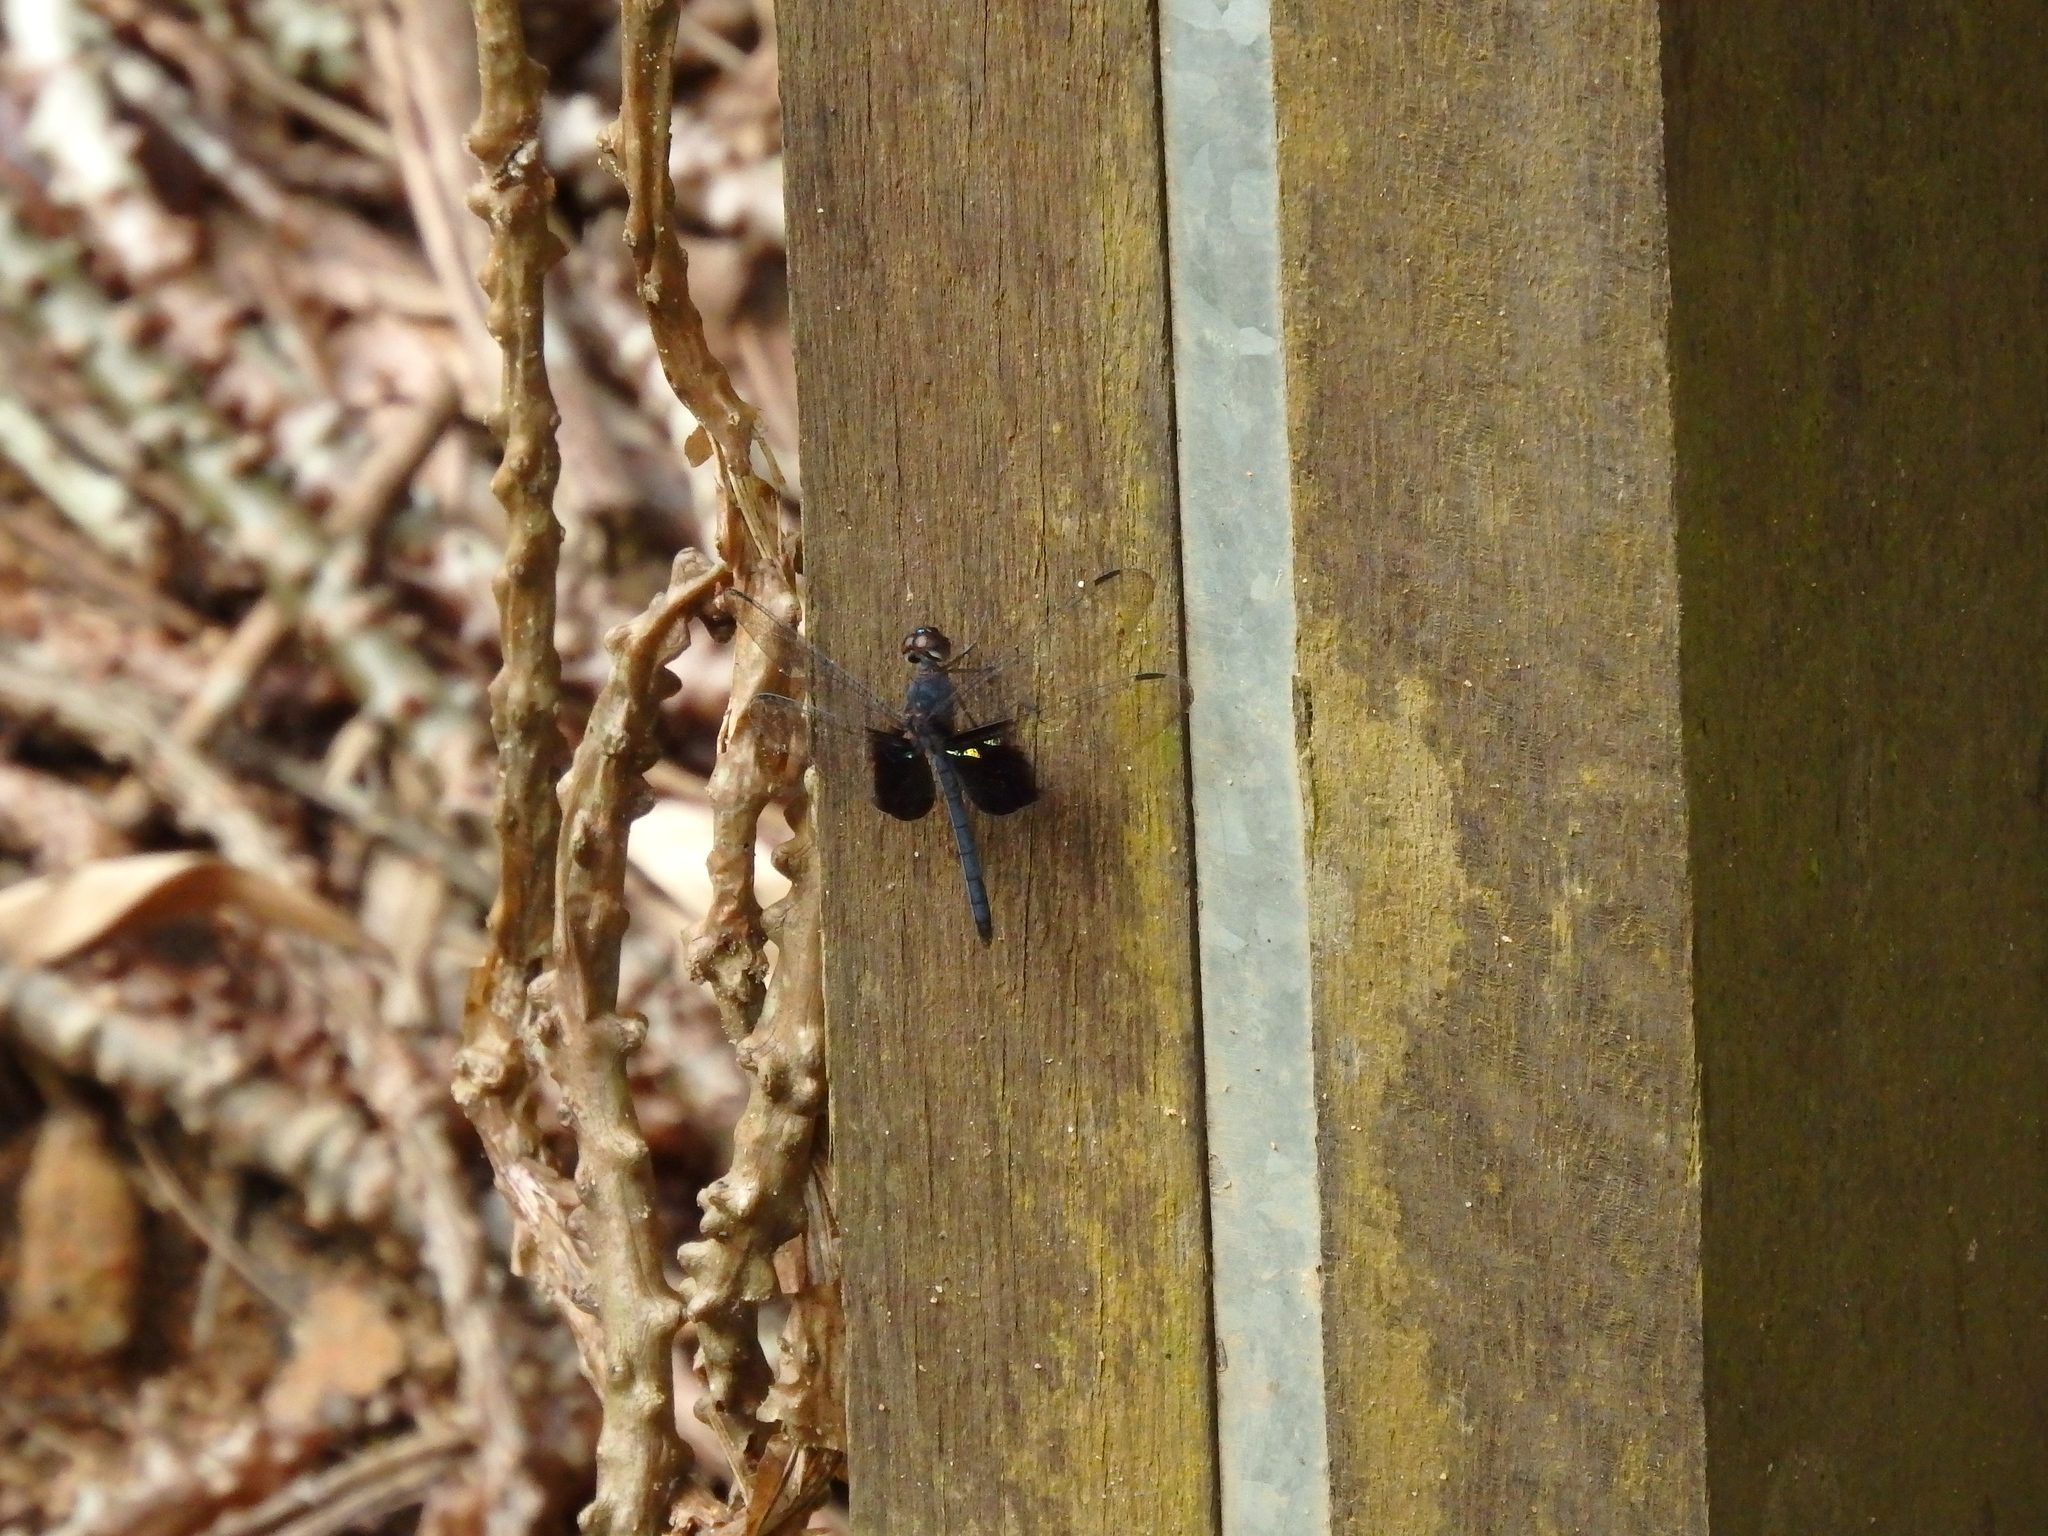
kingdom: Animalia
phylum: Arthropoda
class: Insecta
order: Odonata
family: Libellulidae
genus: Tyriobapta
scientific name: Tyriobapta torrida
